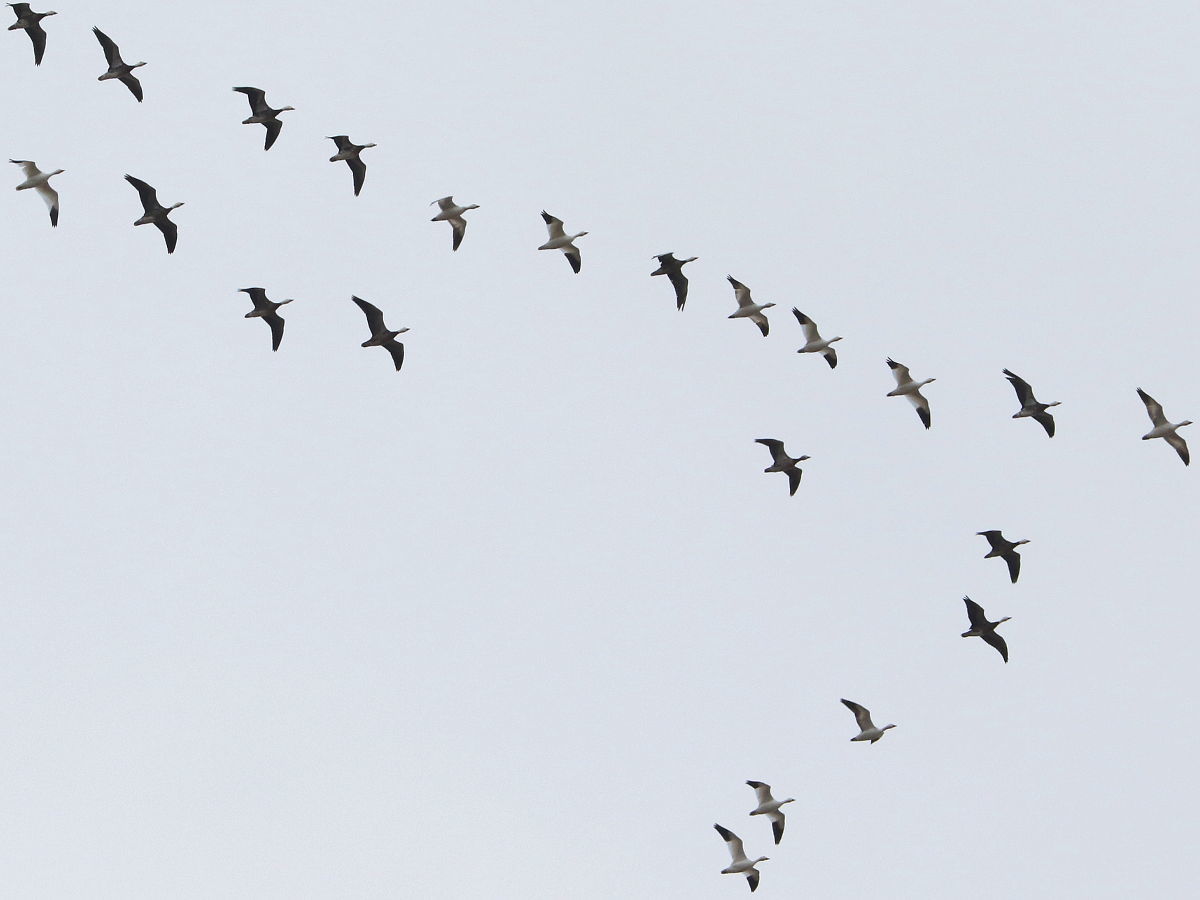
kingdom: Animalia
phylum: Chordata
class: Aves
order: Anseriformes
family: Anatidae
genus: Anser
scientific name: Anser caerulescens
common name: Snow goose
